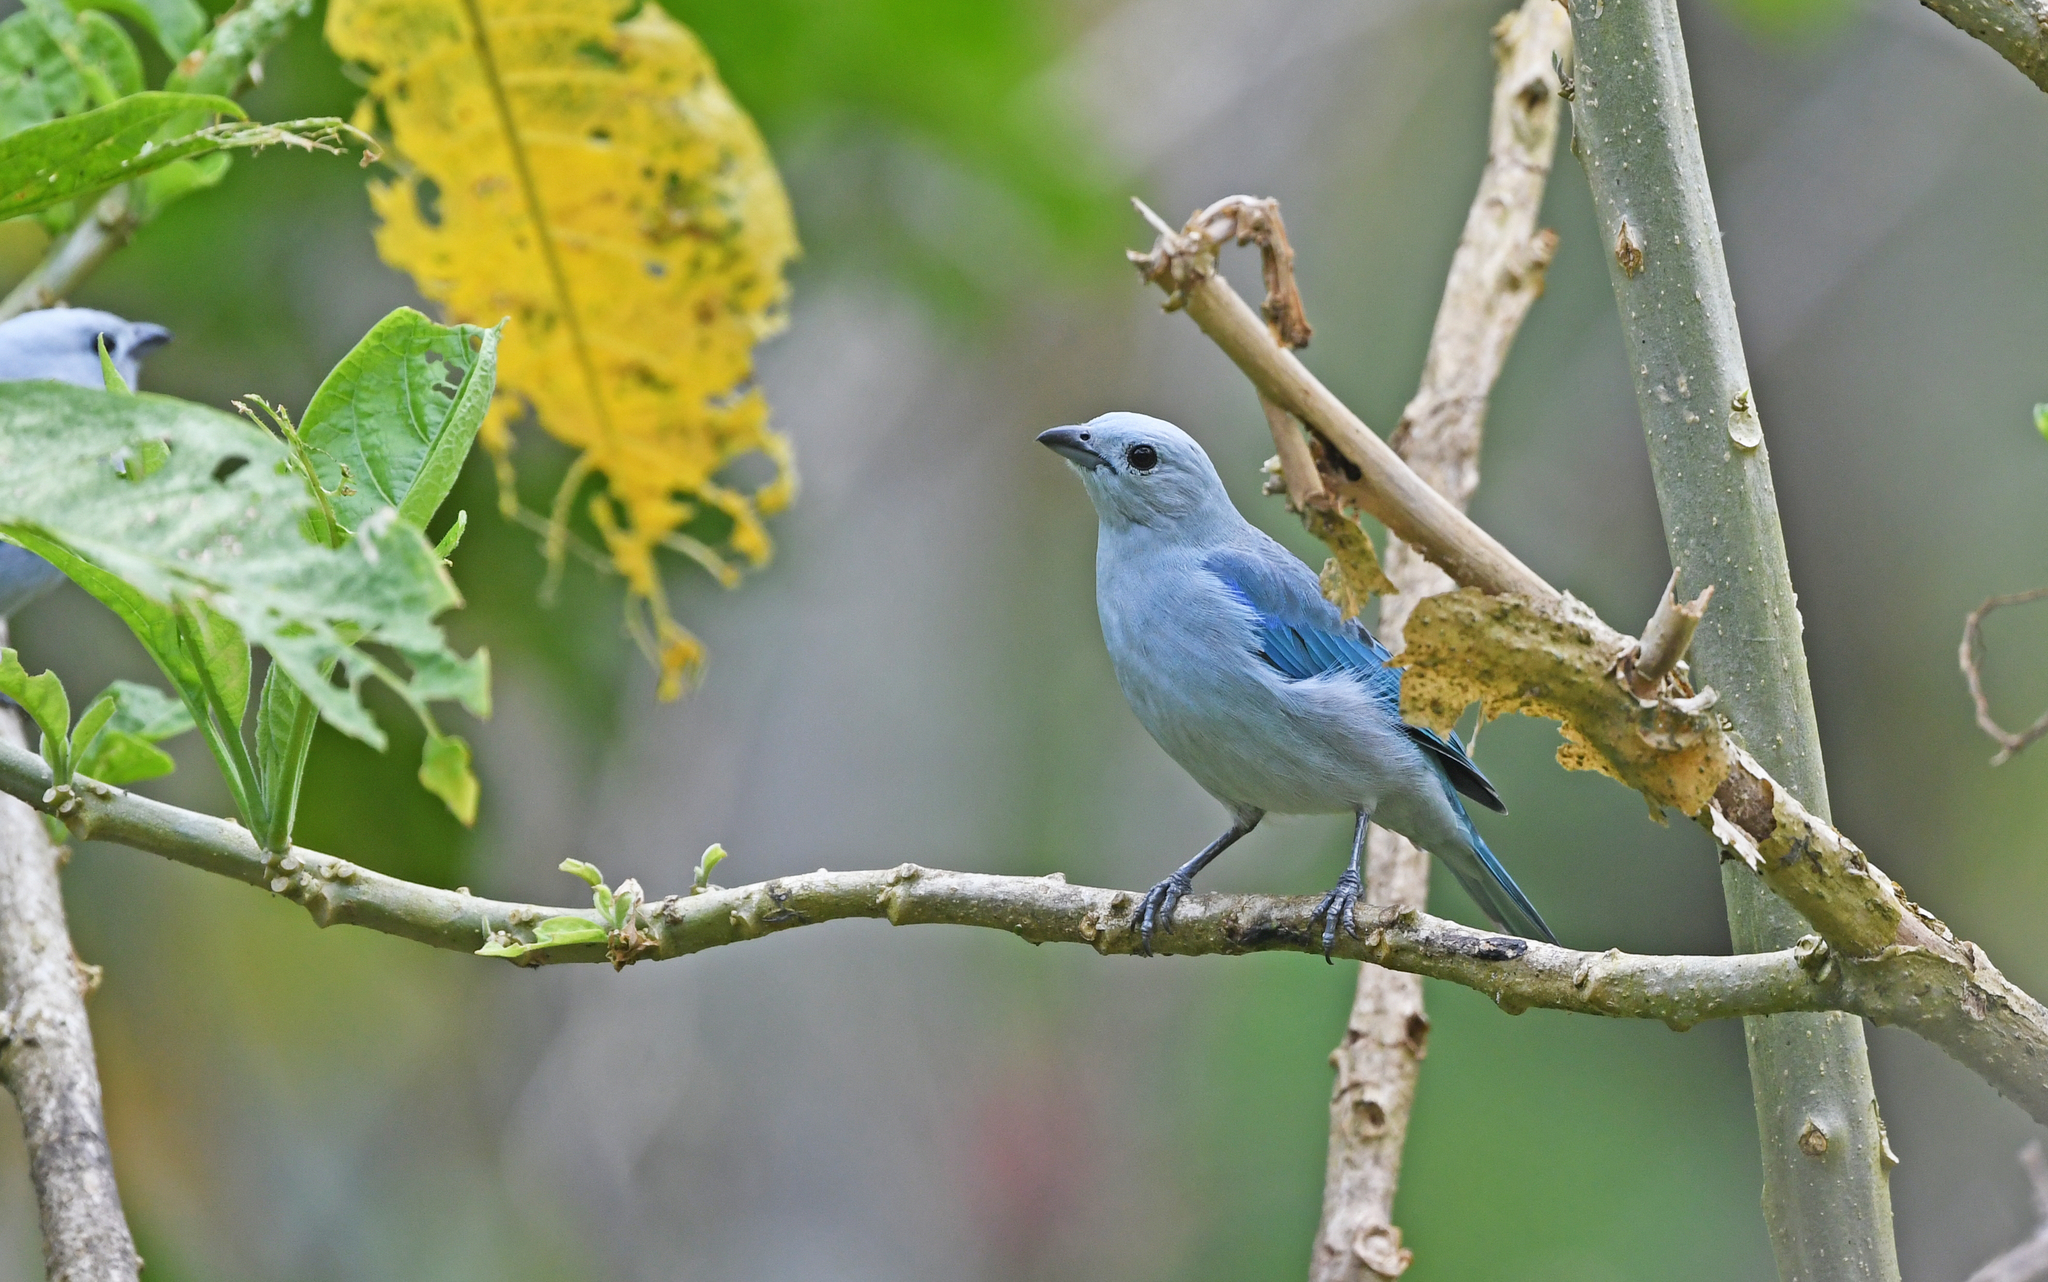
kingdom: Animalia
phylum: Chordata
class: Aves
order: Passeriformes
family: Thraupidae
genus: Thraupis
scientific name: Thraupis episcopus
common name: Blue-grey tanager
